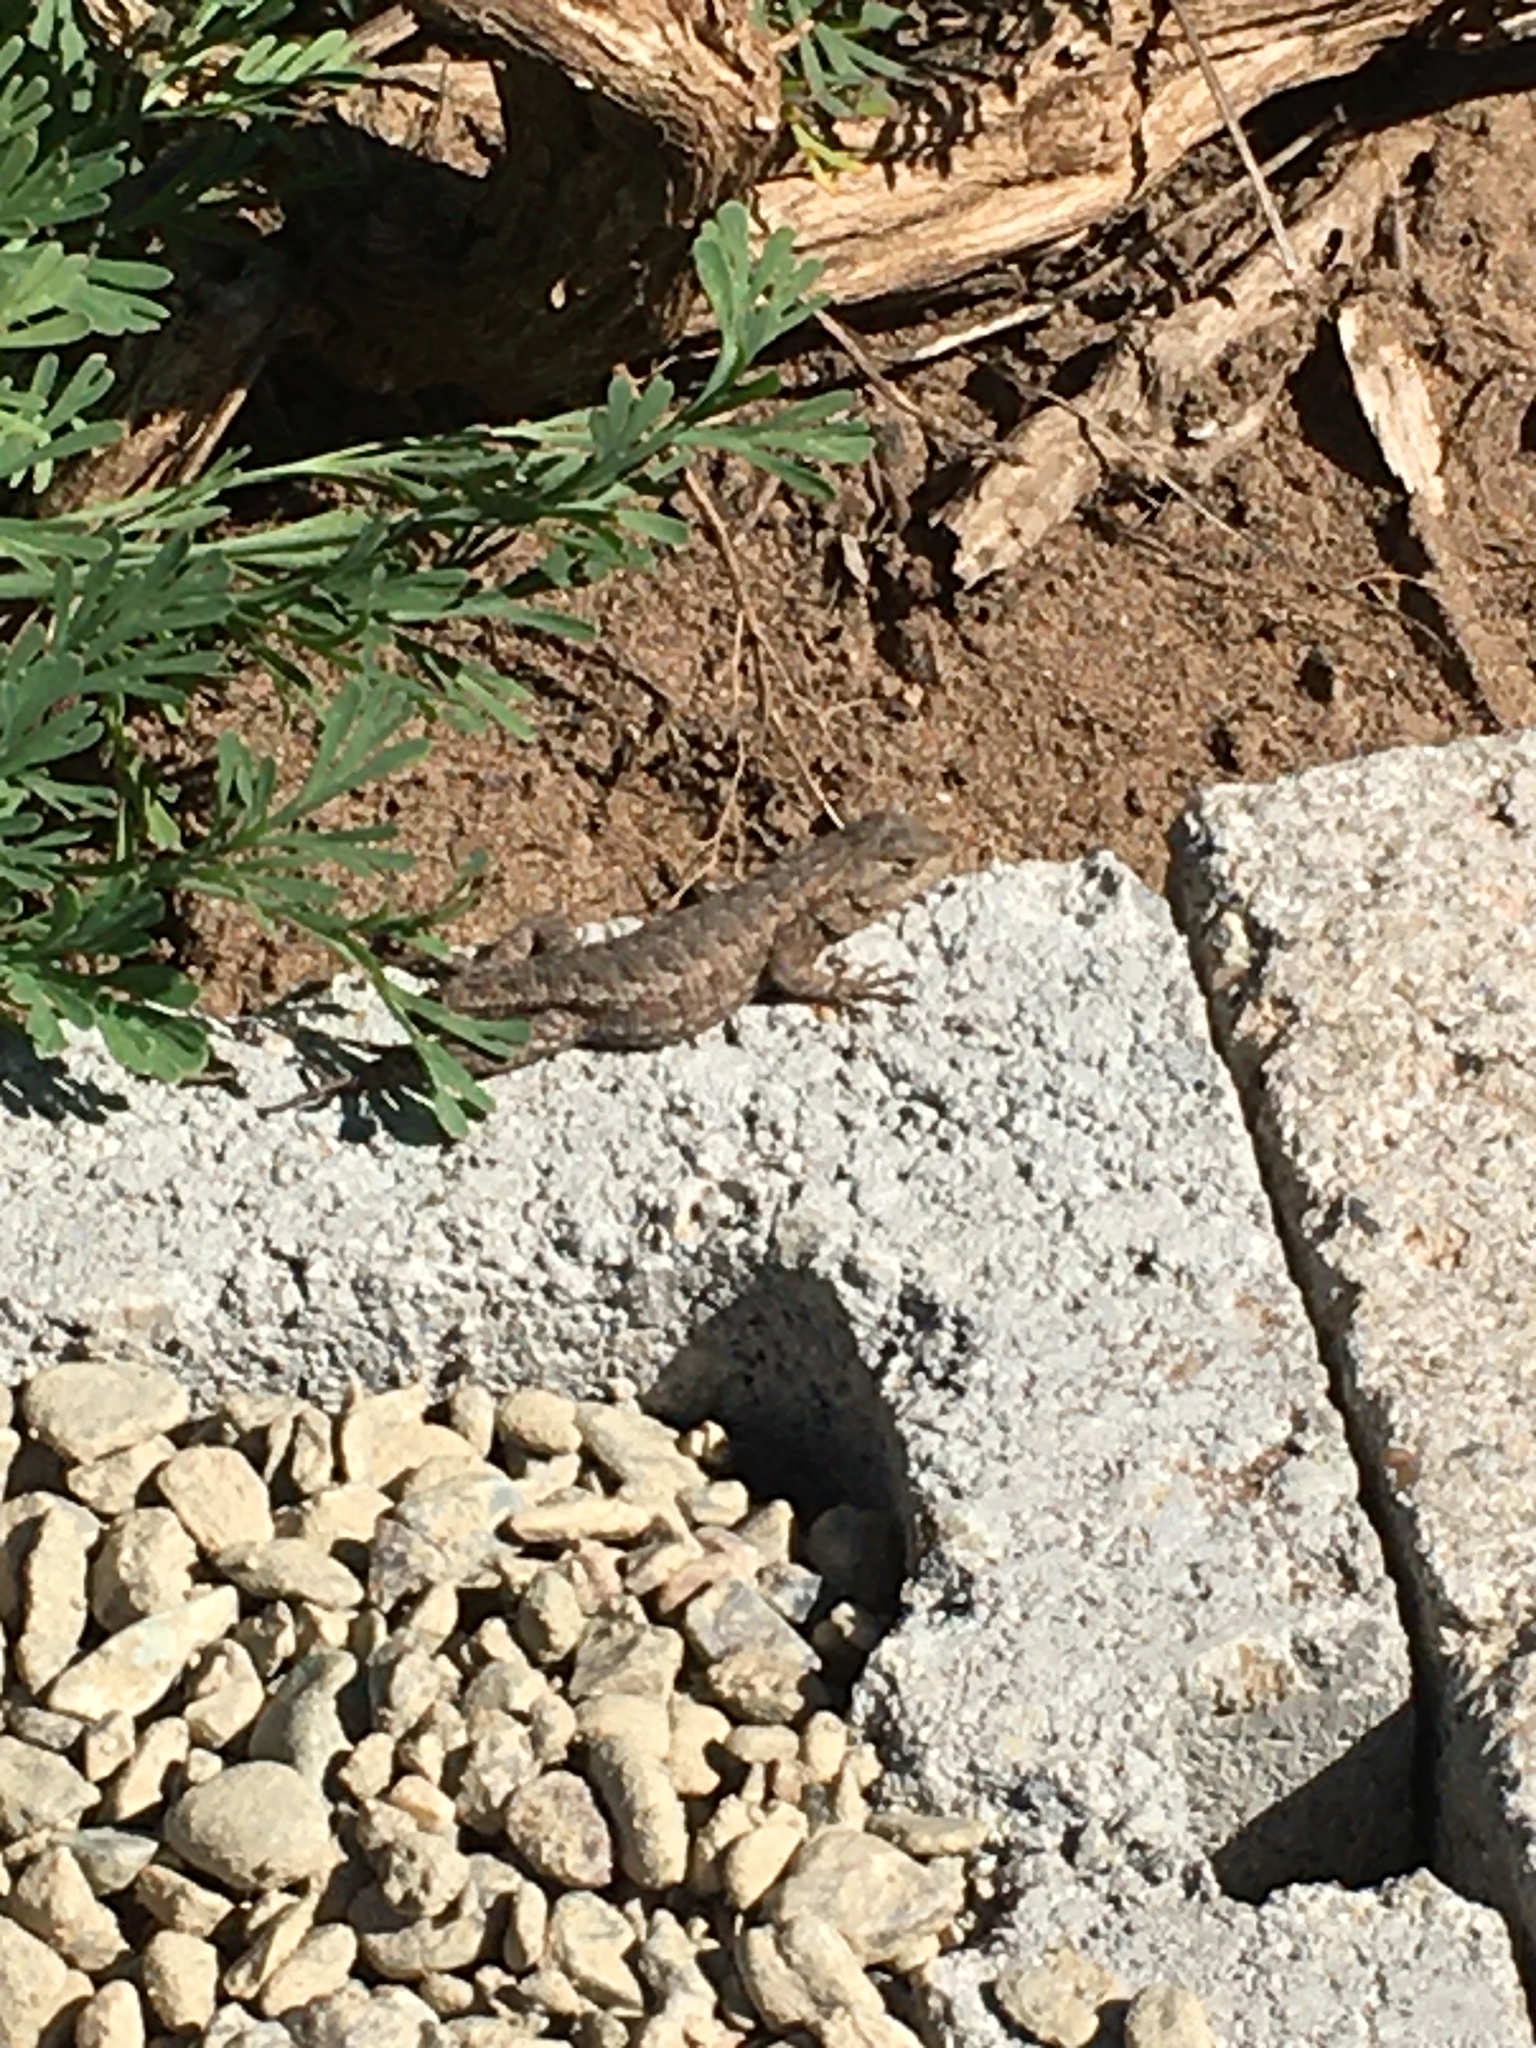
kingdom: Animalia
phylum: Chordata
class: Squamata
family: Phrynosomatidae
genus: Sceloporus
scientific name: Sceloporus occidentalis
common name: Western fence lizard
